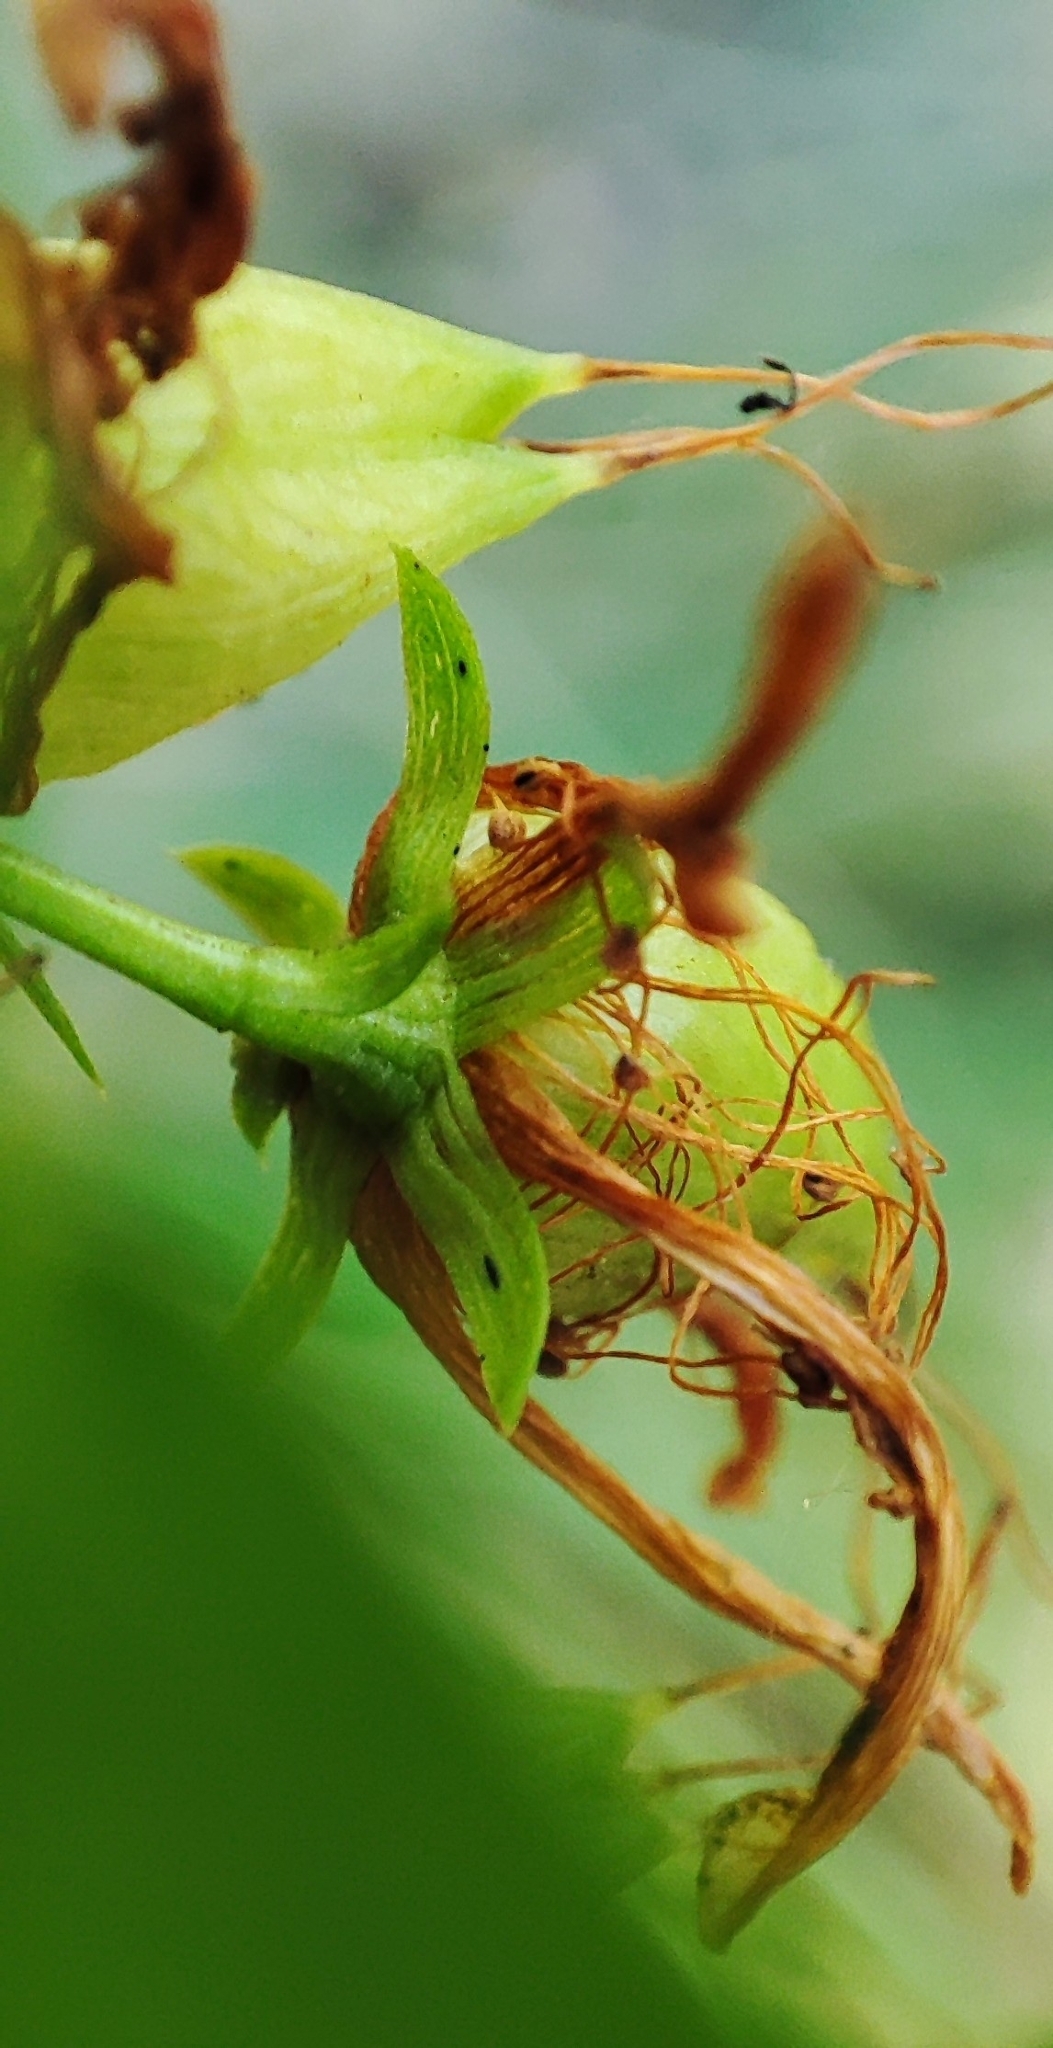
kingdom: Plantae
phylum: Tracheophyta
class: Magnoliopsida
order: Malpighiales
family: Hypericaceae
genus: Hypericum
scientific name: Hypericum perforatum
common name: Common st. johnswort
